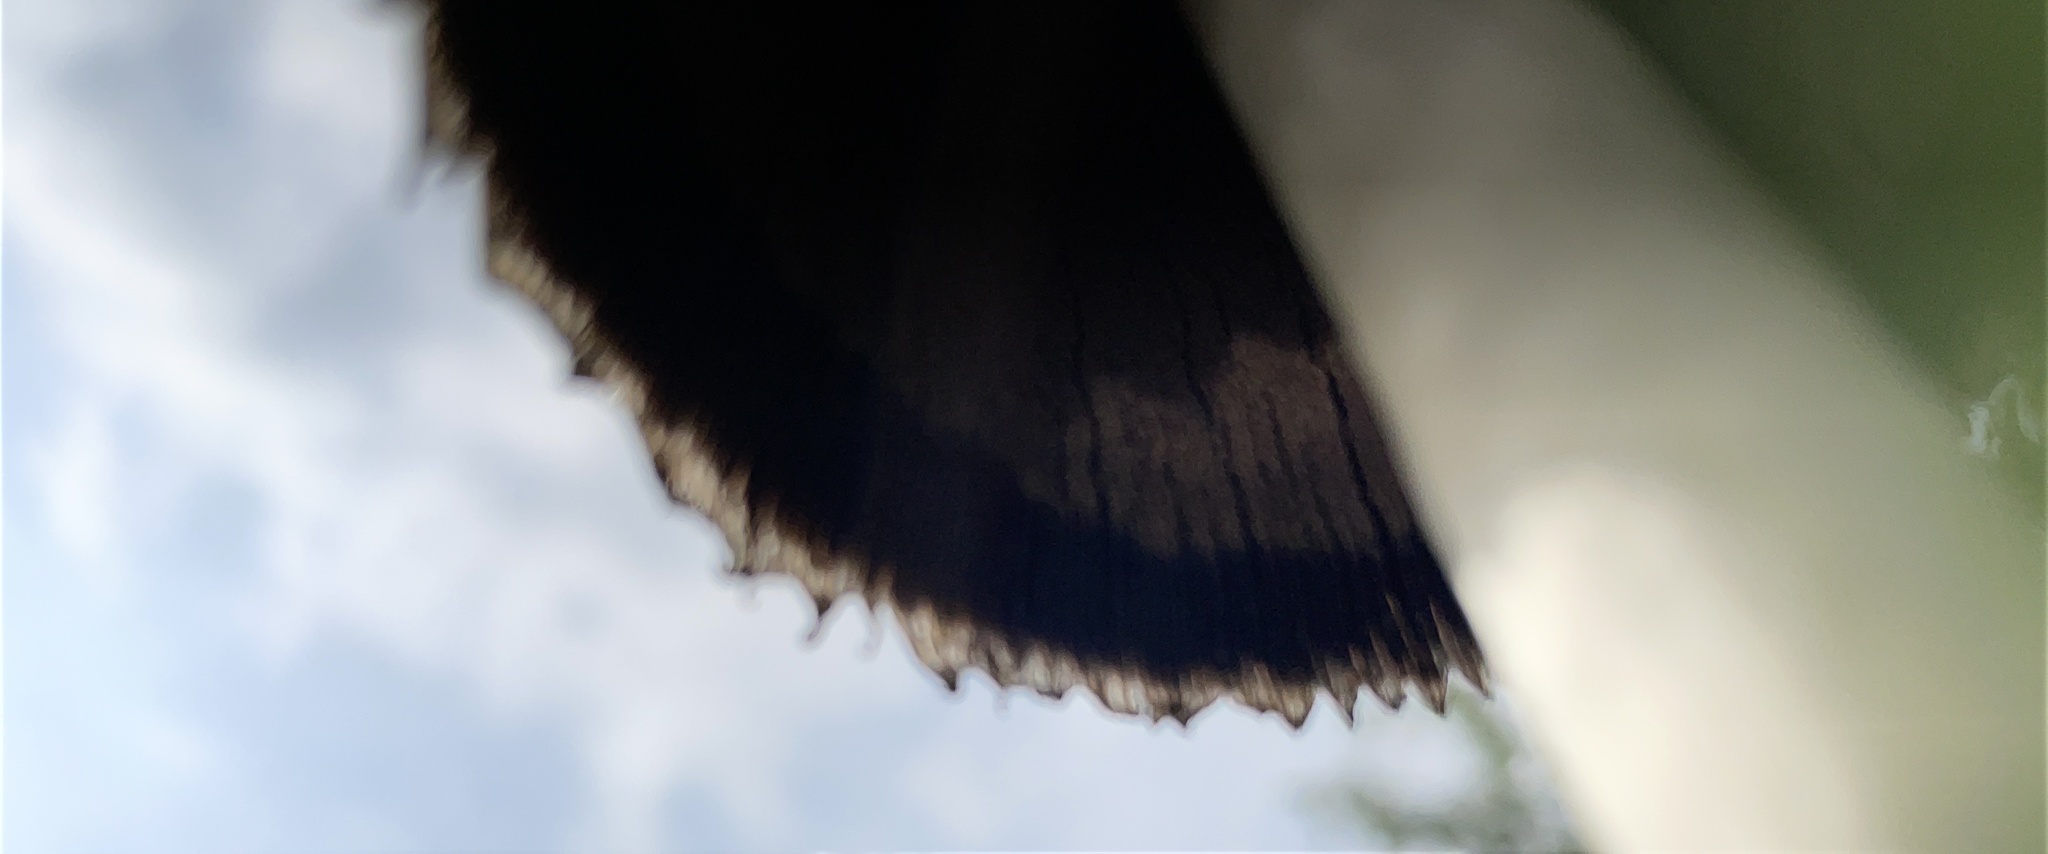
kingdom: Fungi
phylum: Basidiomycota
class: Agaricomycetes
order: Agaricales
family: Agaricaceae
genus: Coprinus
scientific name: Coprinus comatus
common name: Lawyer's wig
